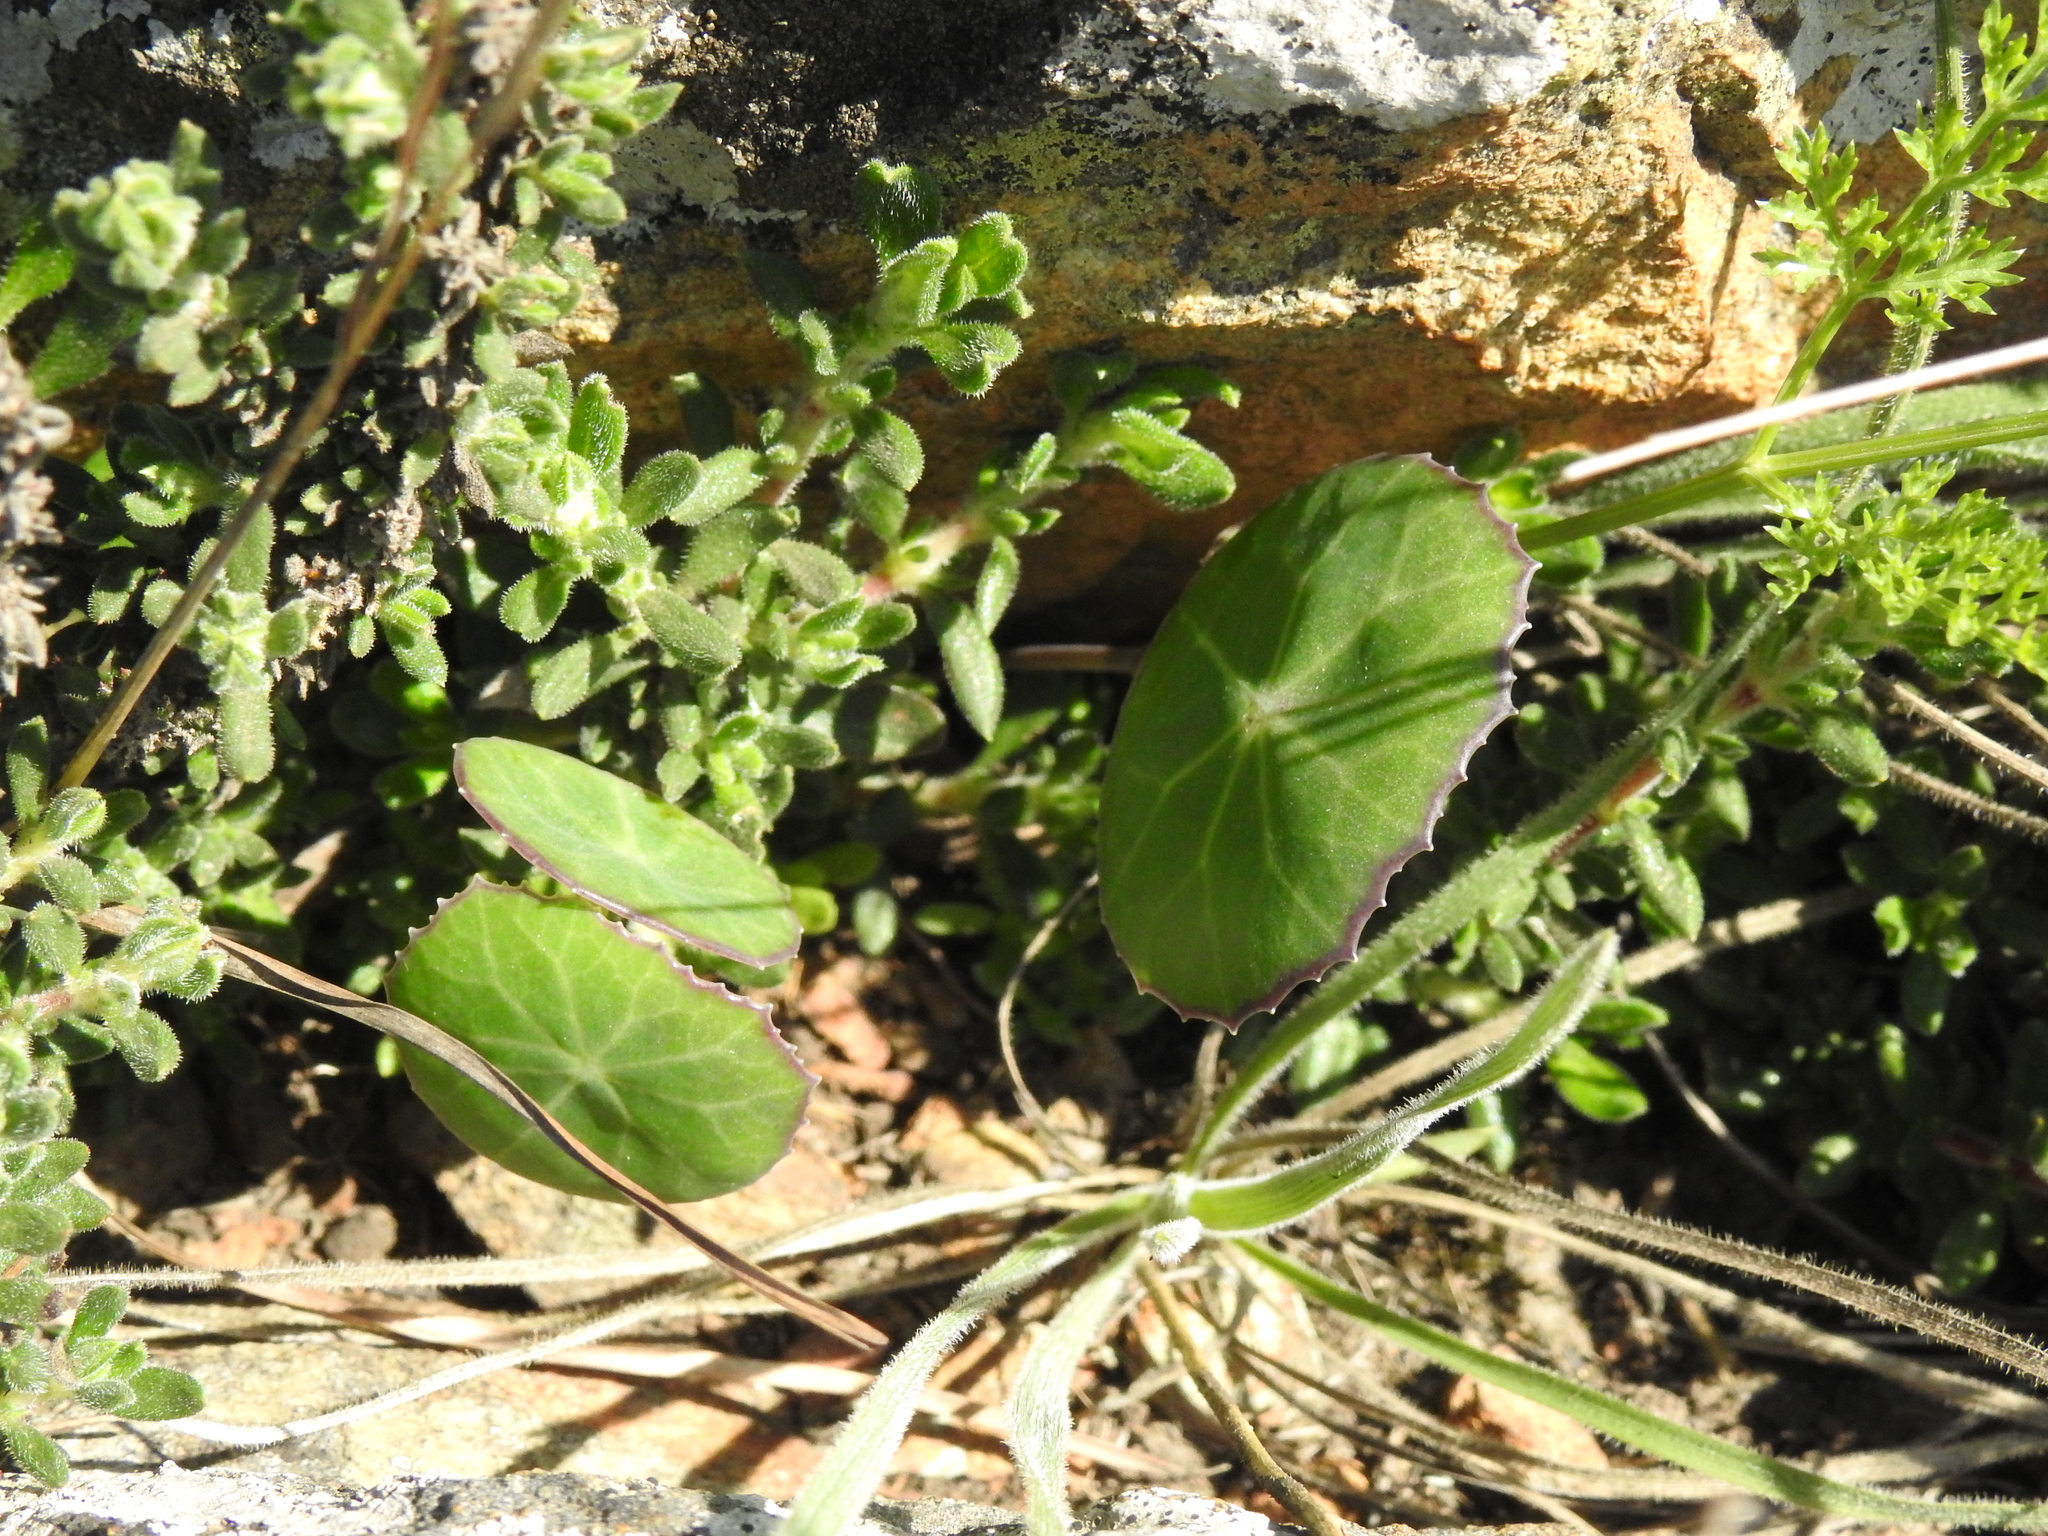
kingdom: Plantae
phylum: Tracheophyta
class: Magnoliopsida
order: Asterales
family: Asteraceae
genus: Senecio
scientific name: Senecio oxyriifolius
